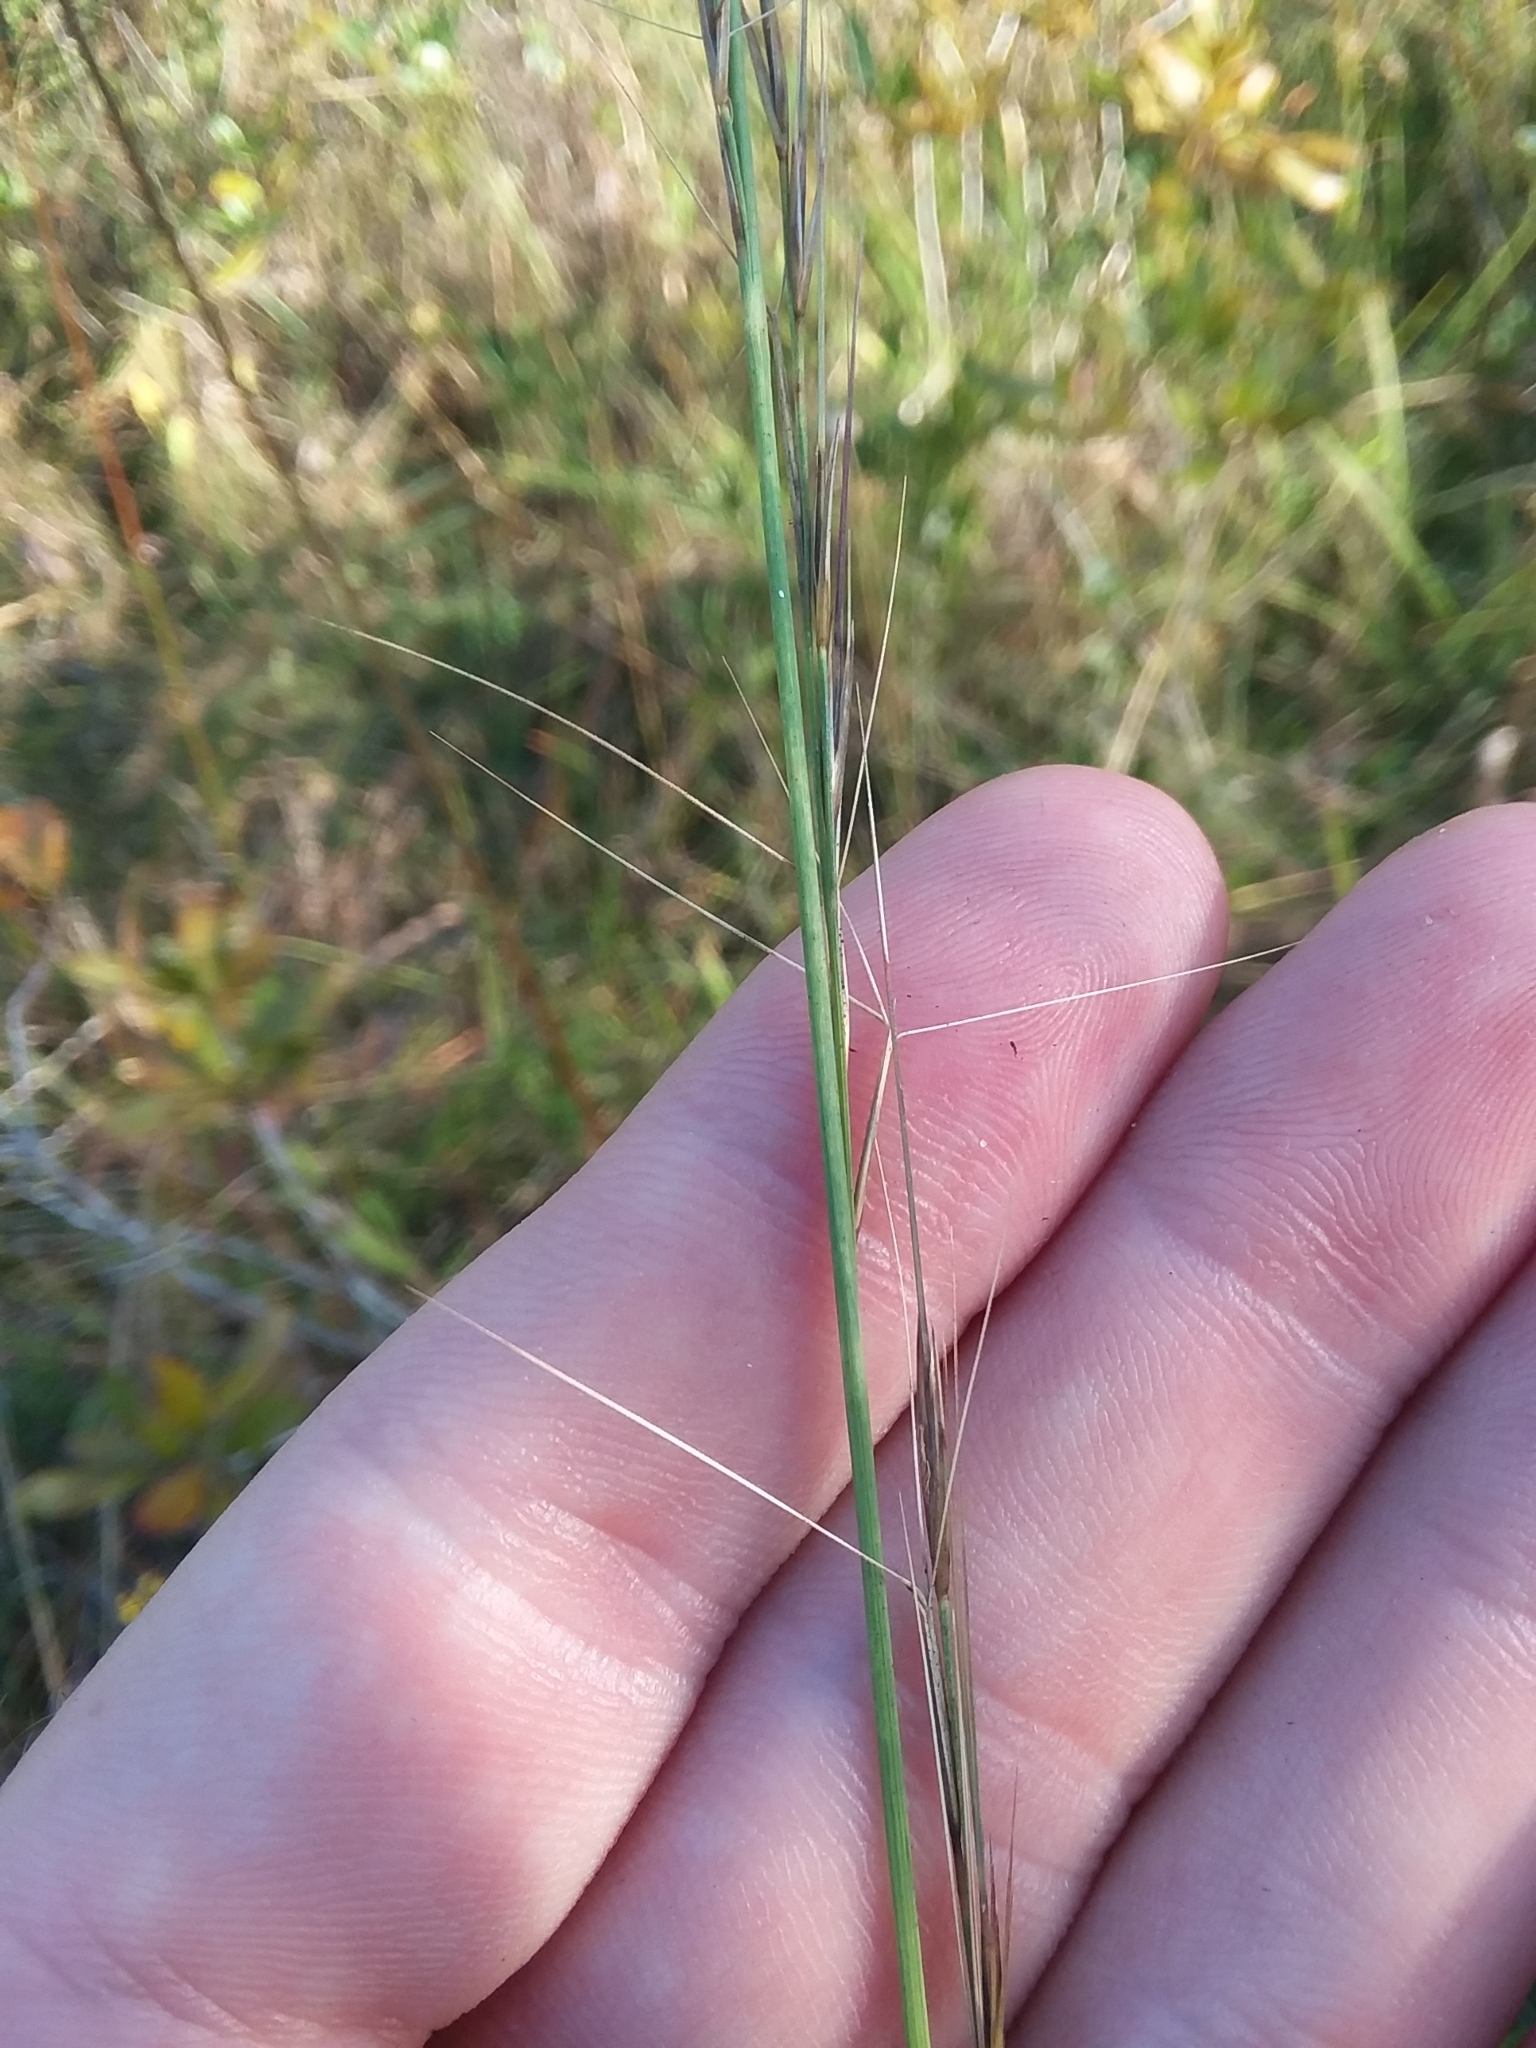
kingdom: Plantae
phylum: Tracheophyta
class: Liliopsida
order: Poales
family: Poaceae
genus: Aristida
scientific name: Aristida palustris
